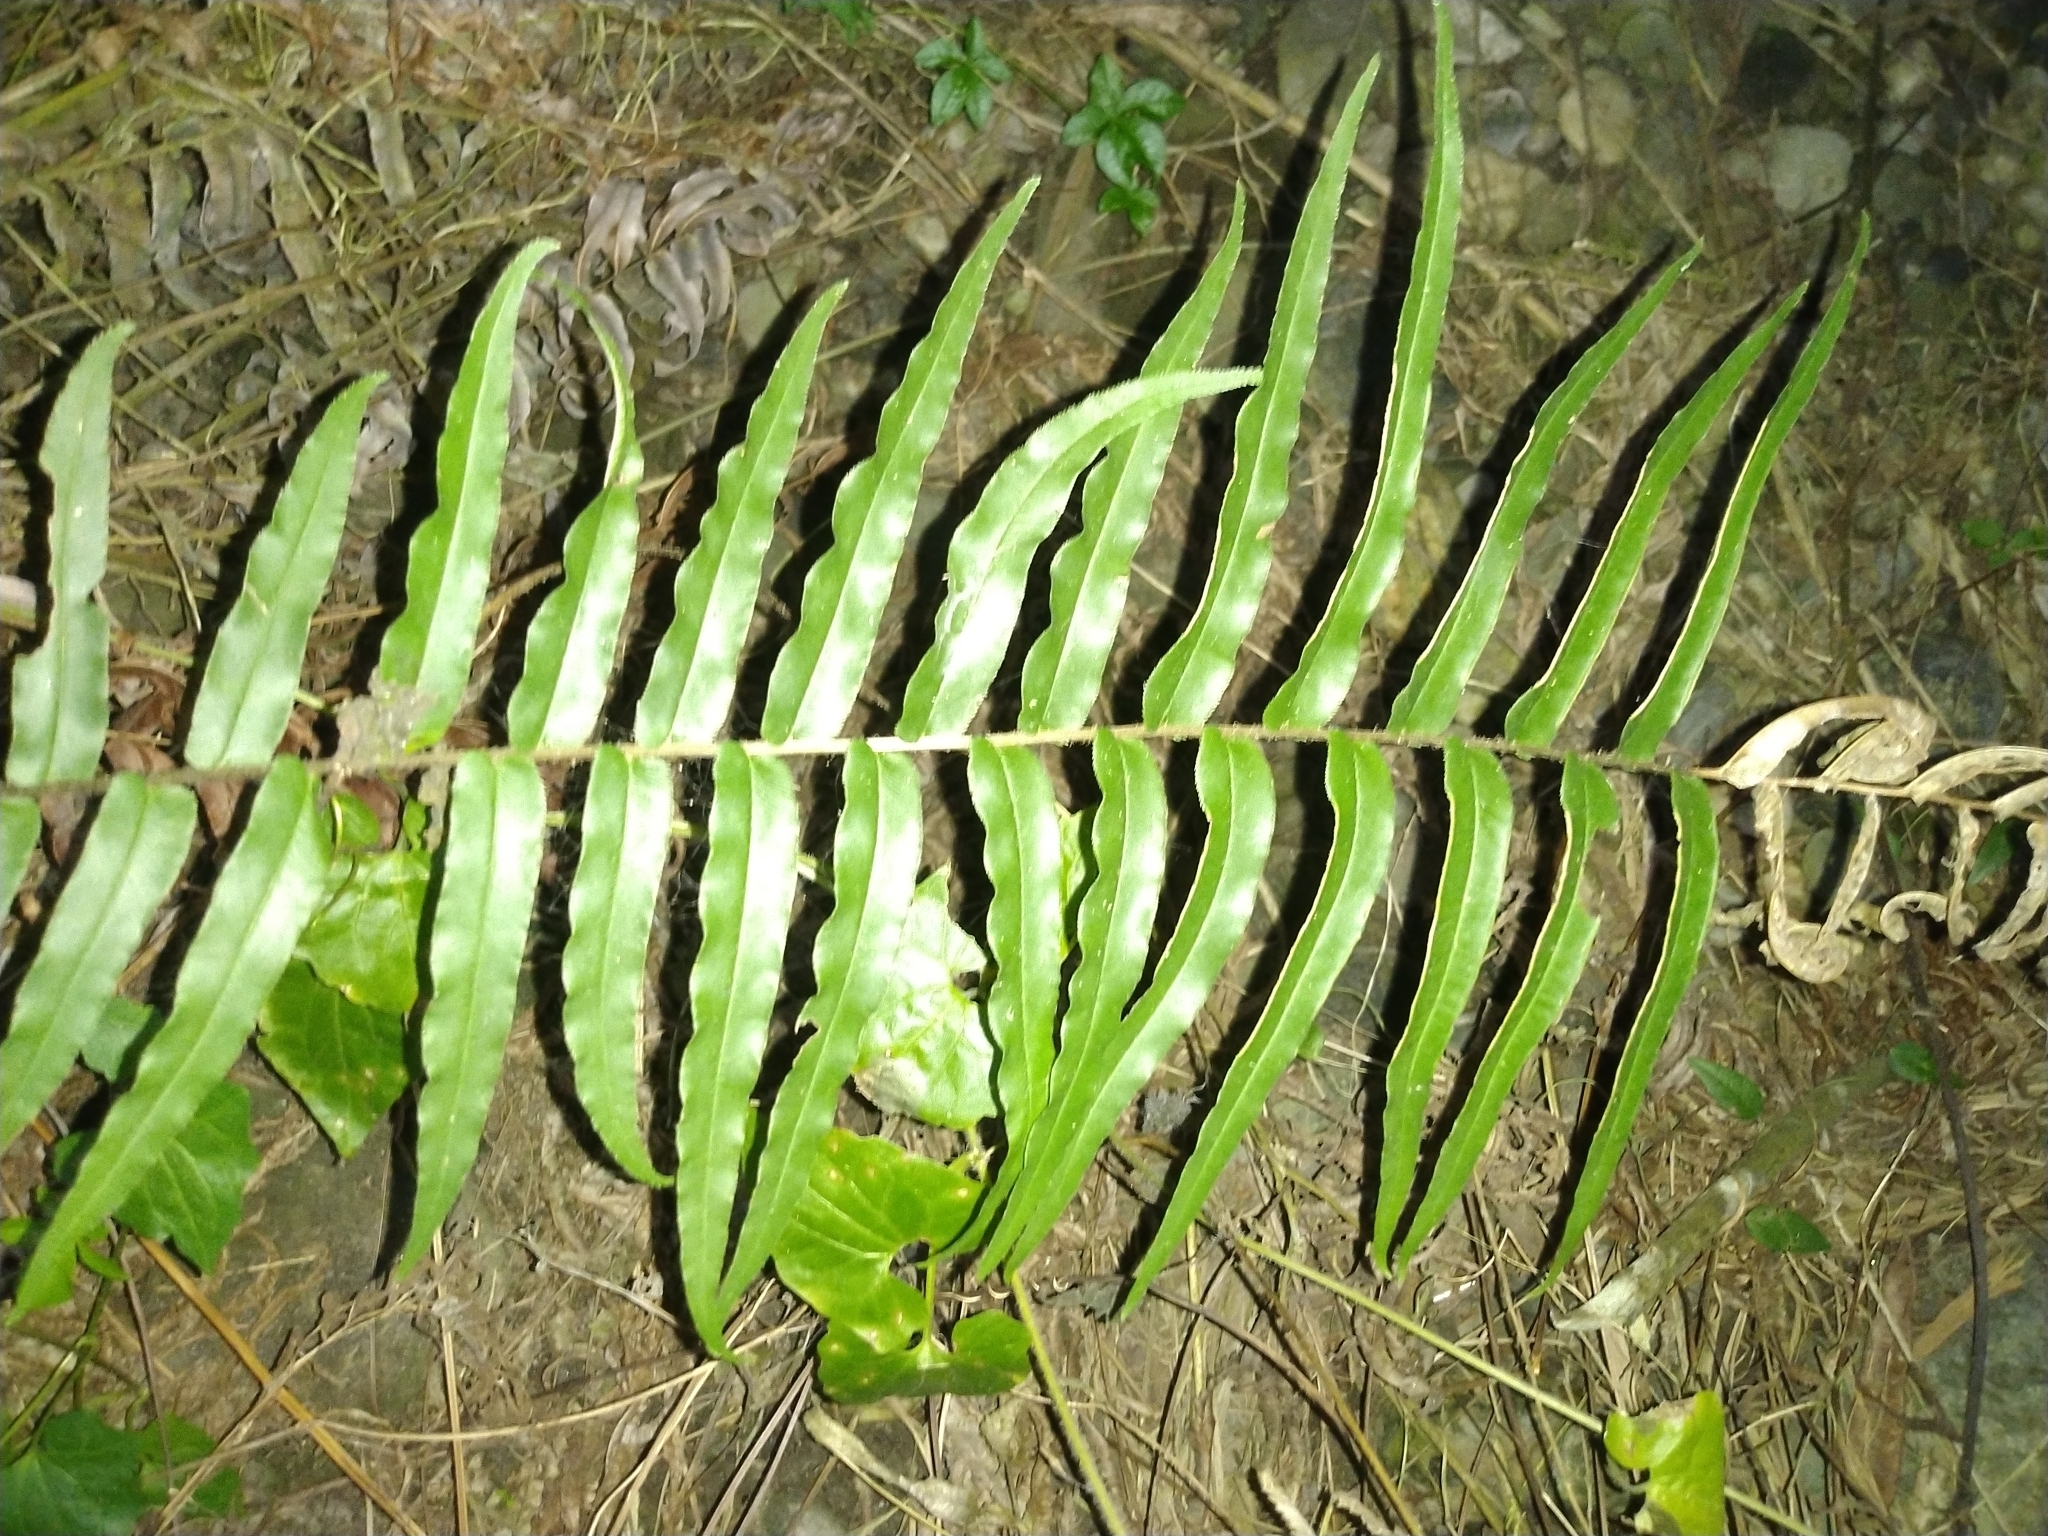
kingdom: Plantae
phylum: Tracheophyta
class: Polypodiopsida
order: Polypodiales
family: Pteridaceae
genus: Pteris
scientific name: Pteris vittata
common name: Ladder brake
